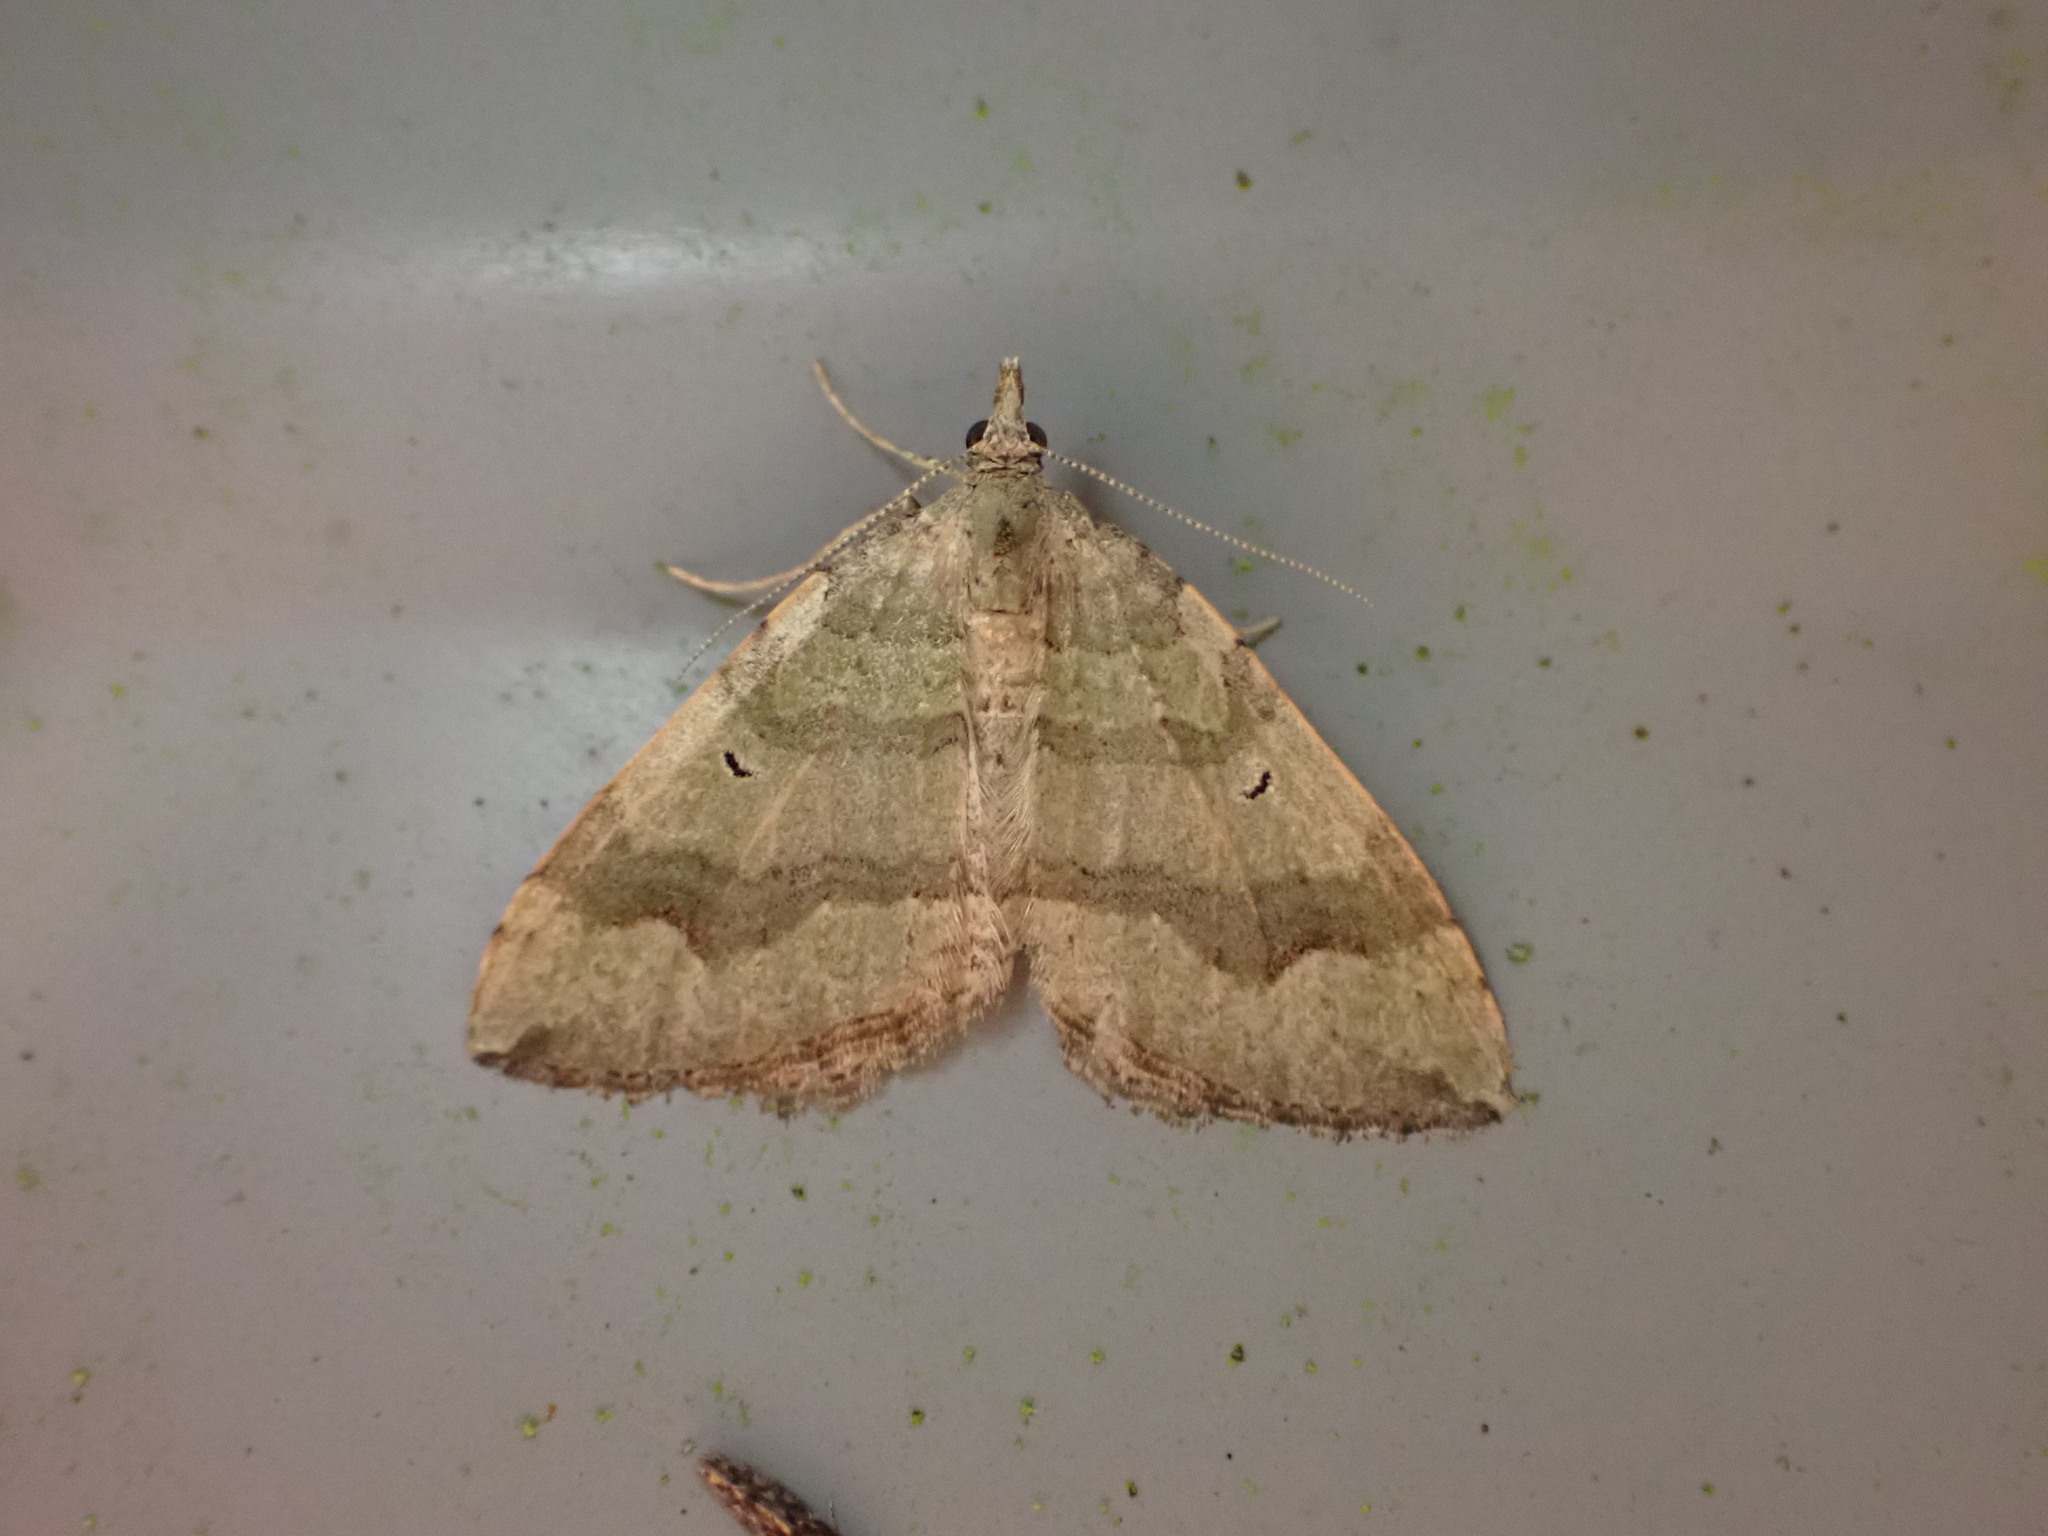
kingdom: Animalia
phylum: Arthropoda
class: Insecta
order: Lepidoptera
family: Geometridae
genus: Epyaxa
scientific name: Epyaxa rosearia
